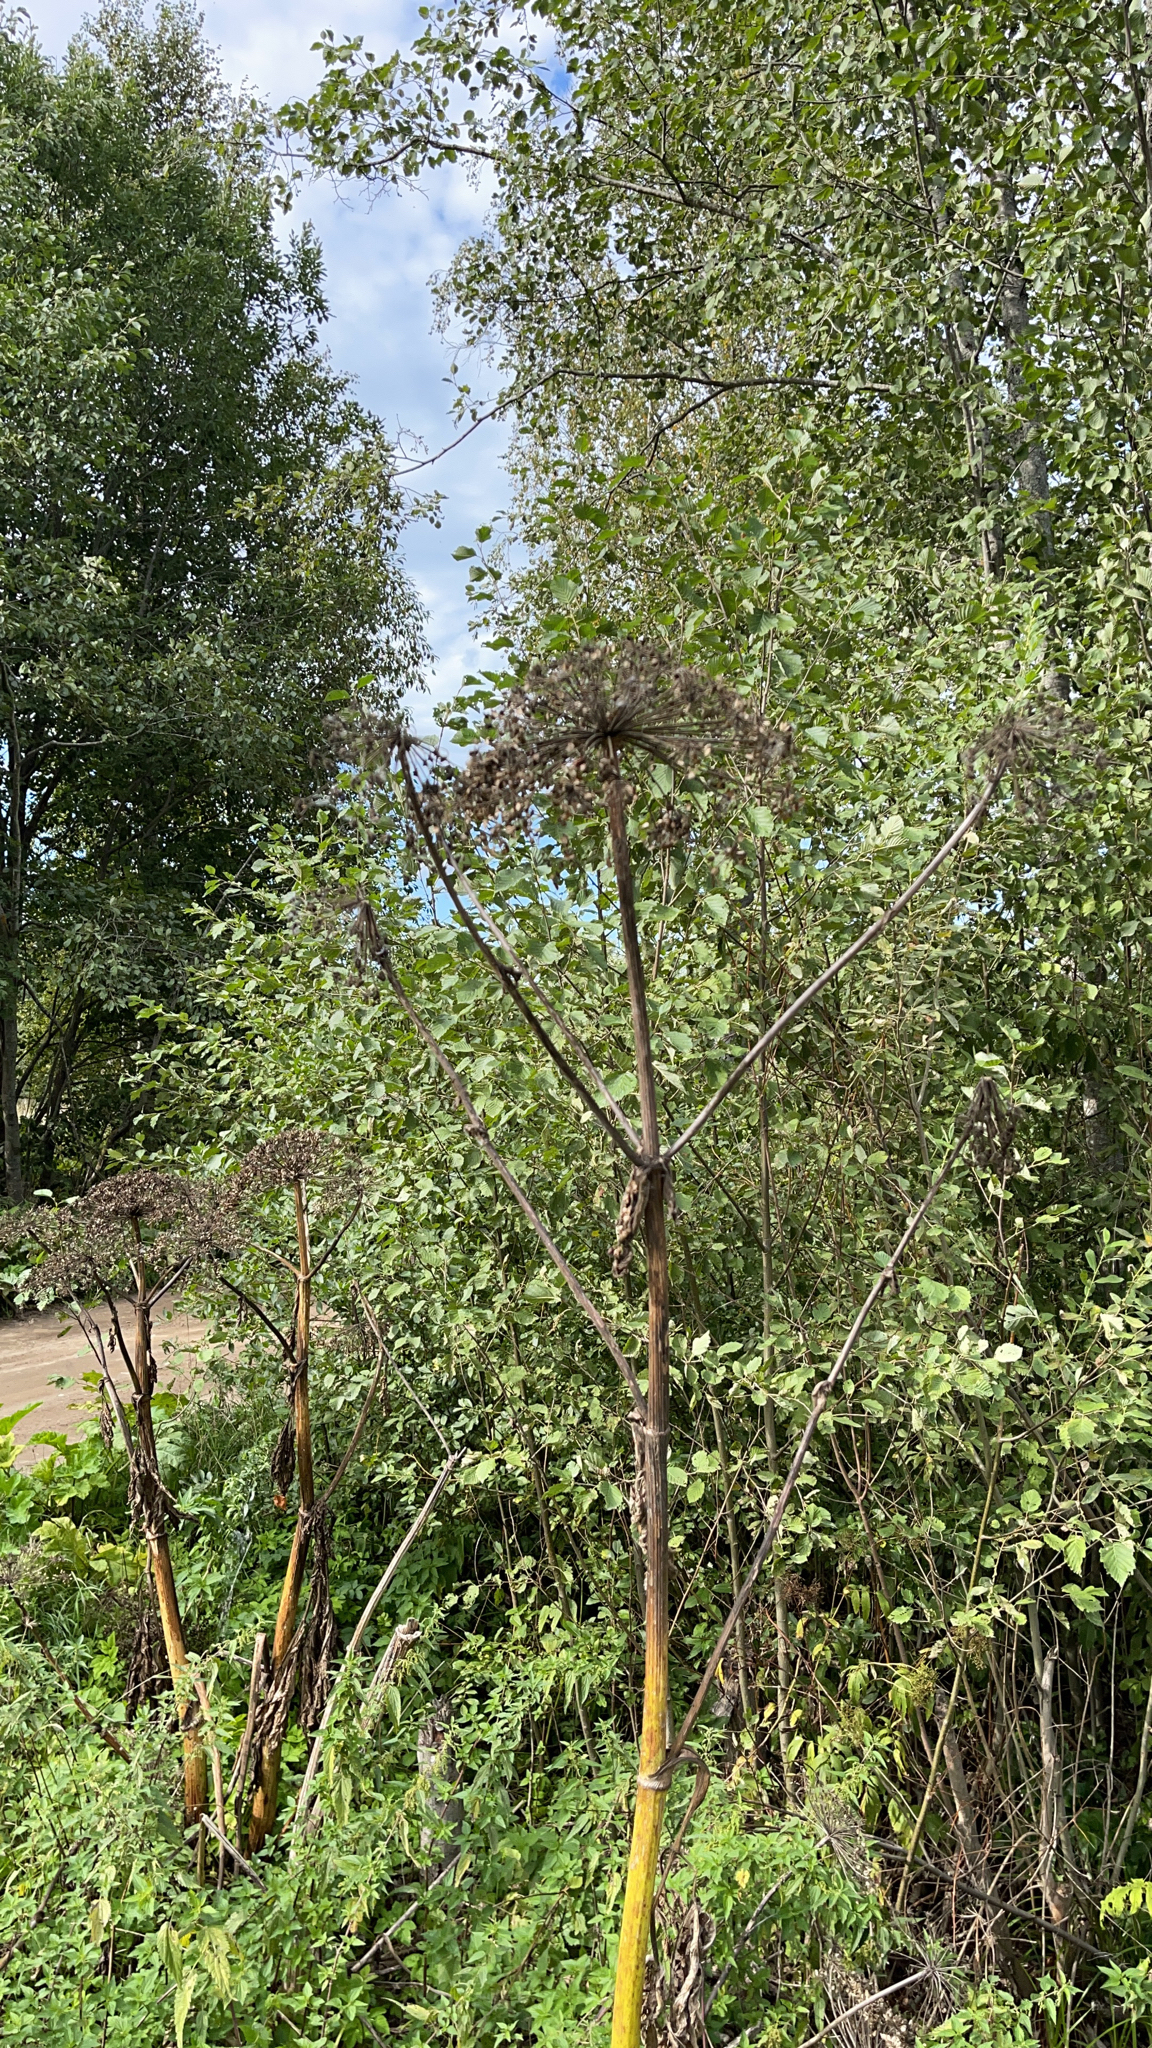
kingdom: Plantae
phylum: Tracheophyta
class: Magnoliopsida
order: Apiales
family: Apiaceae
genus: Heracleum
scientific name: Heracleum sosnowskyi
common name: Sosnowsky's hogweed
